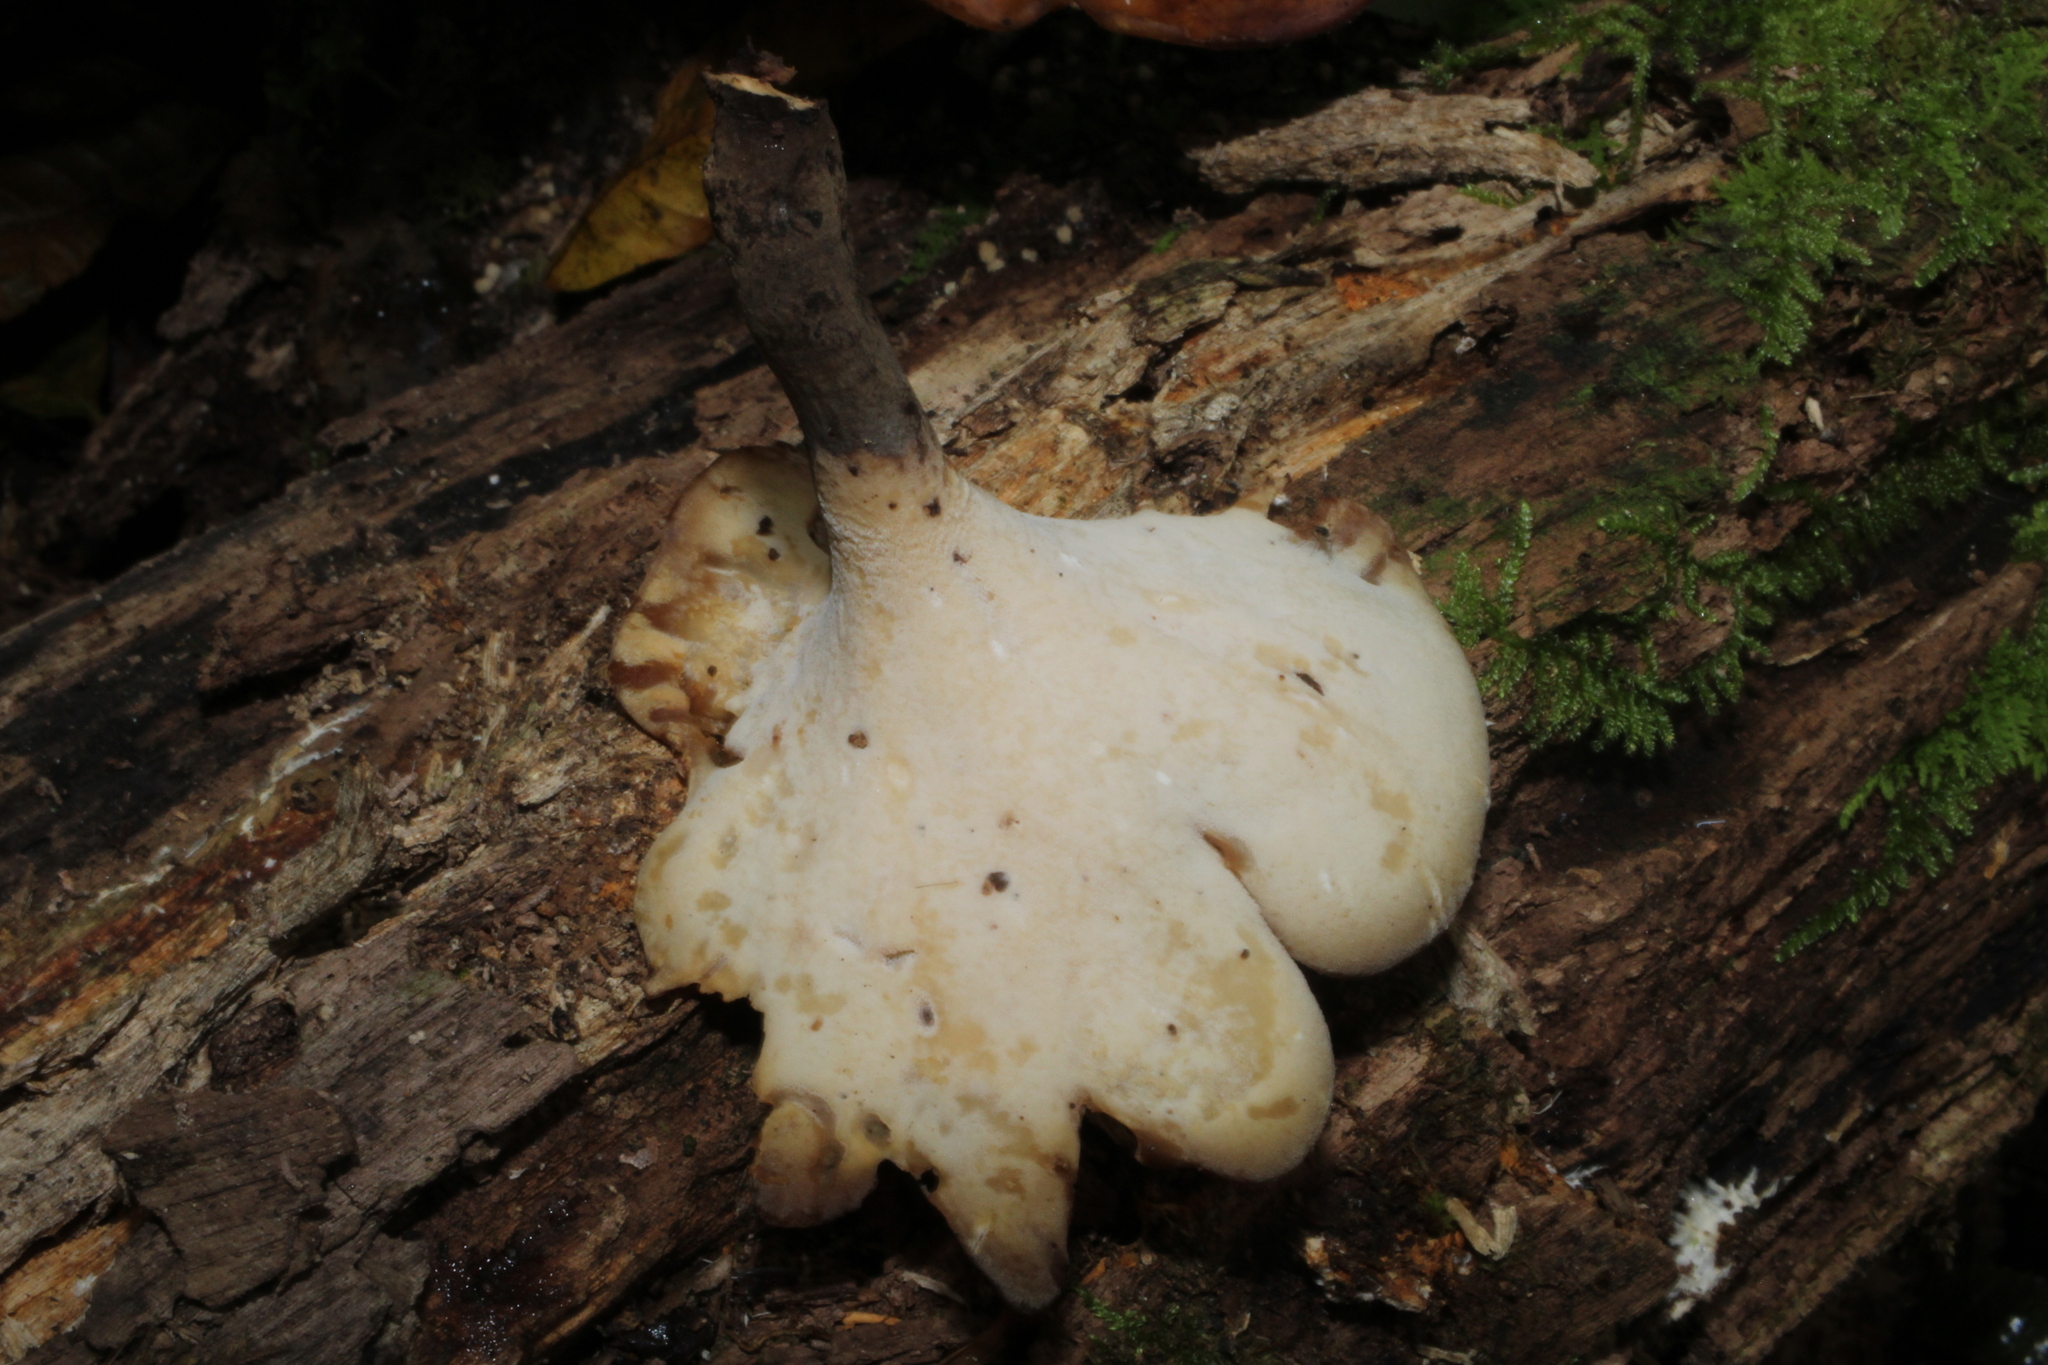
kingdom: Fungi
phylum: Basidiomycota
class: Agaricomycetes
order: Polyporales
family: Polyporaceae
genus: Picipes
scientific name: Picipes badius
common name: Bay polypore
